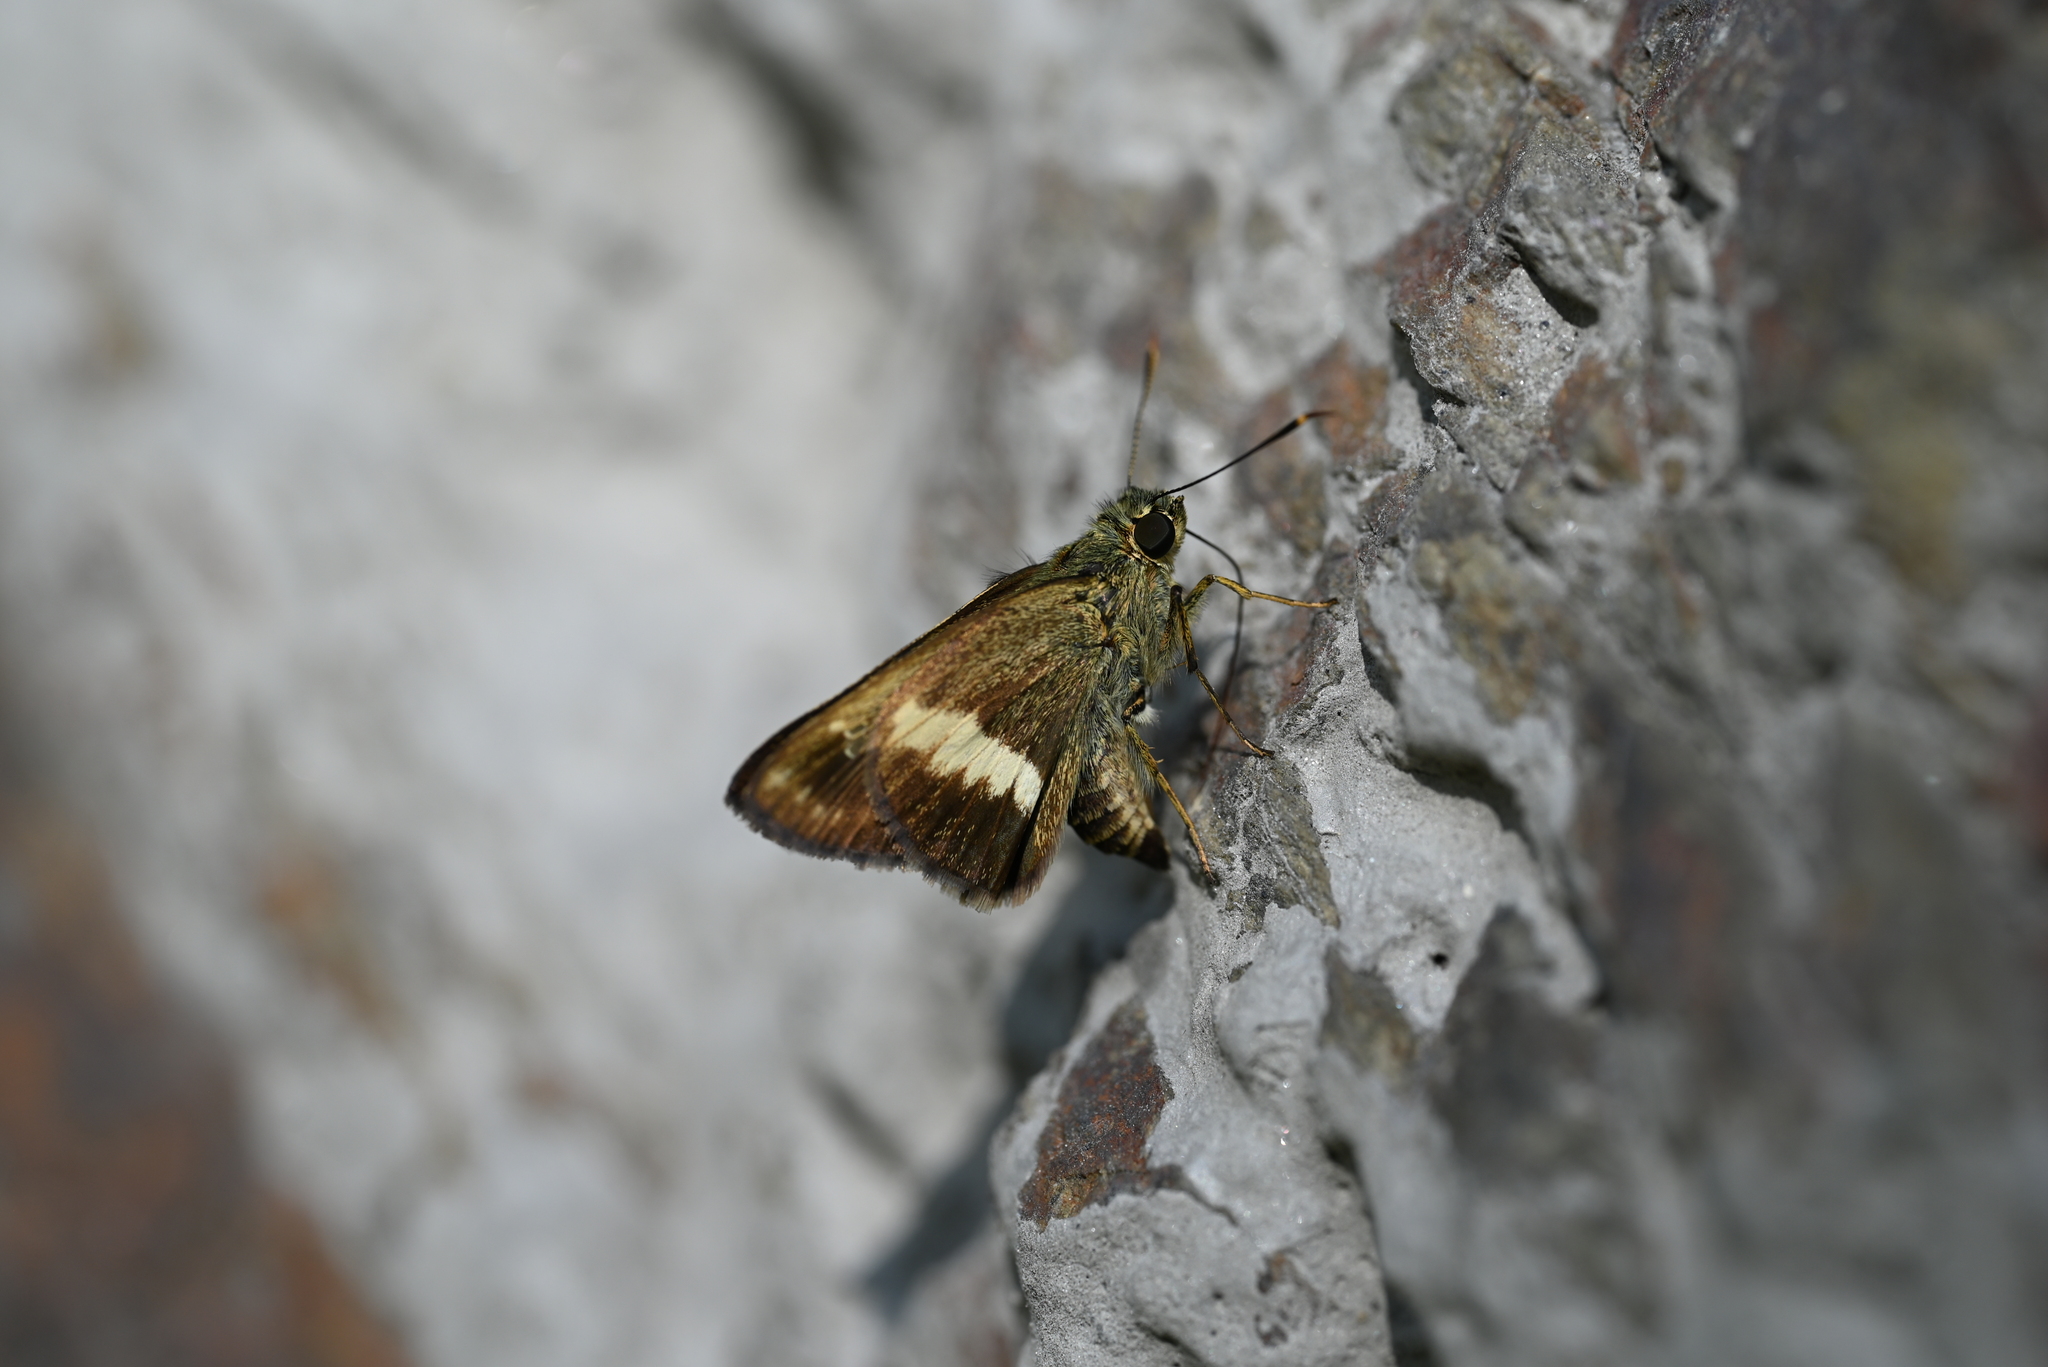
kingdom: Animalia
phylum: Arthropoda
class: Insecta
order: Lepidoptera
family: Hesperiidae
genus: Halpe
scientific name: Halpe zema
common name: Dark banded ace
